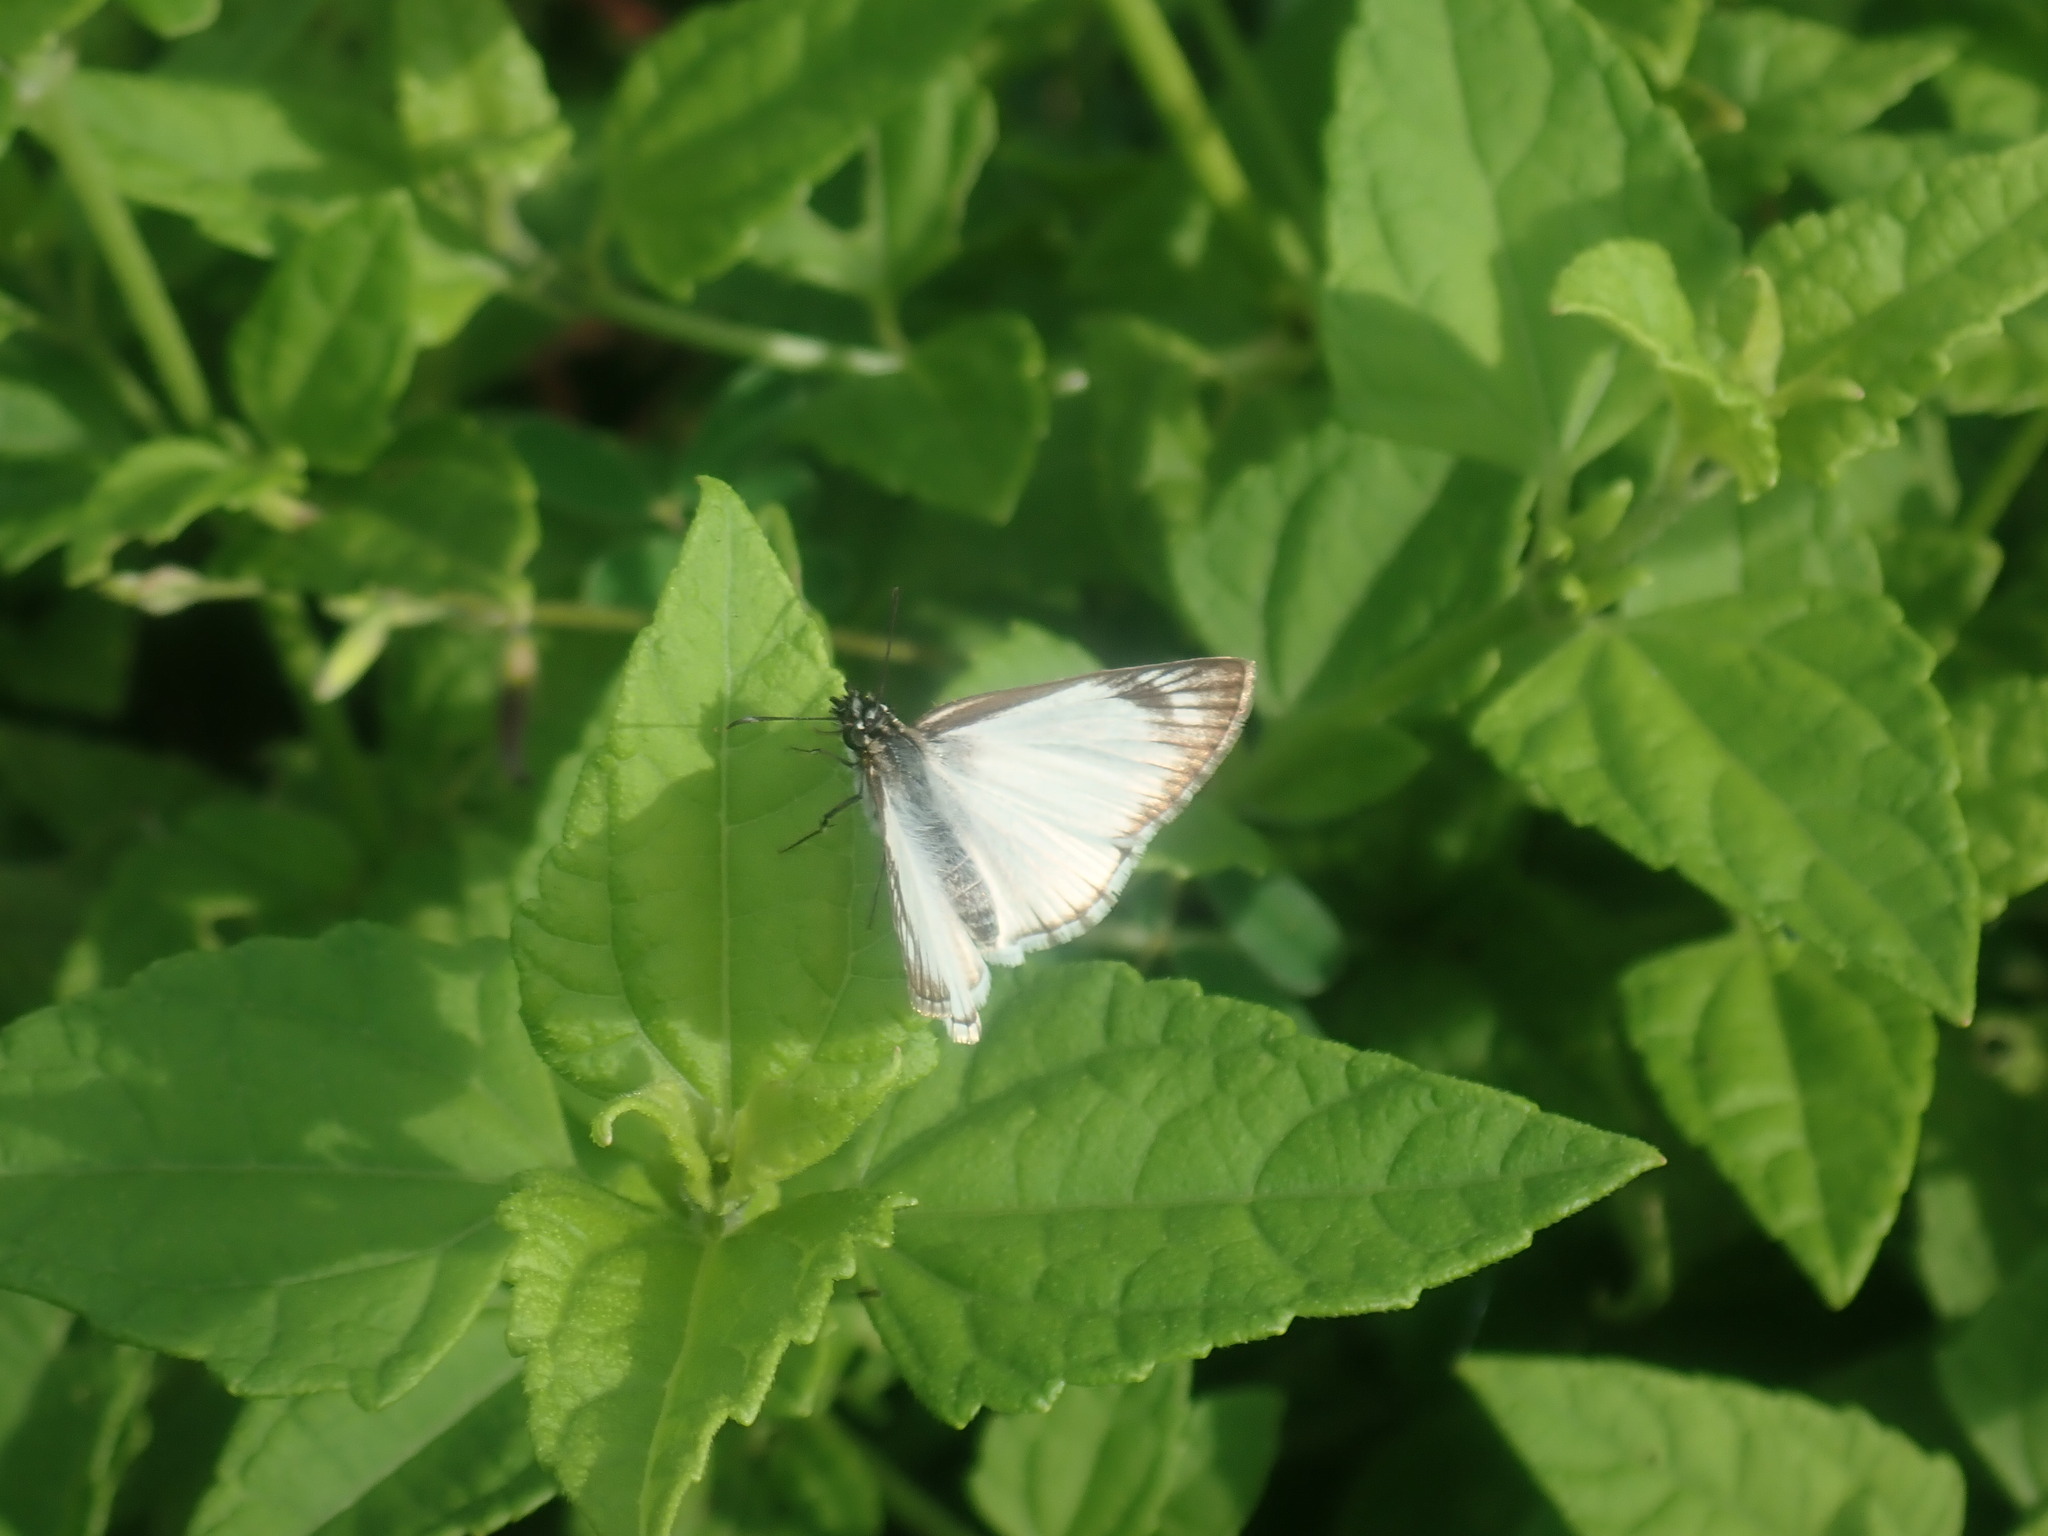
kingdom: Animalia
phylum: Arthropoda
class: Insecta
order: Lepidoptera
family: Hesperiidae
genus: Heliopetes
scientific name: Heliopetes arsalte
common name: Veined white-skipper
